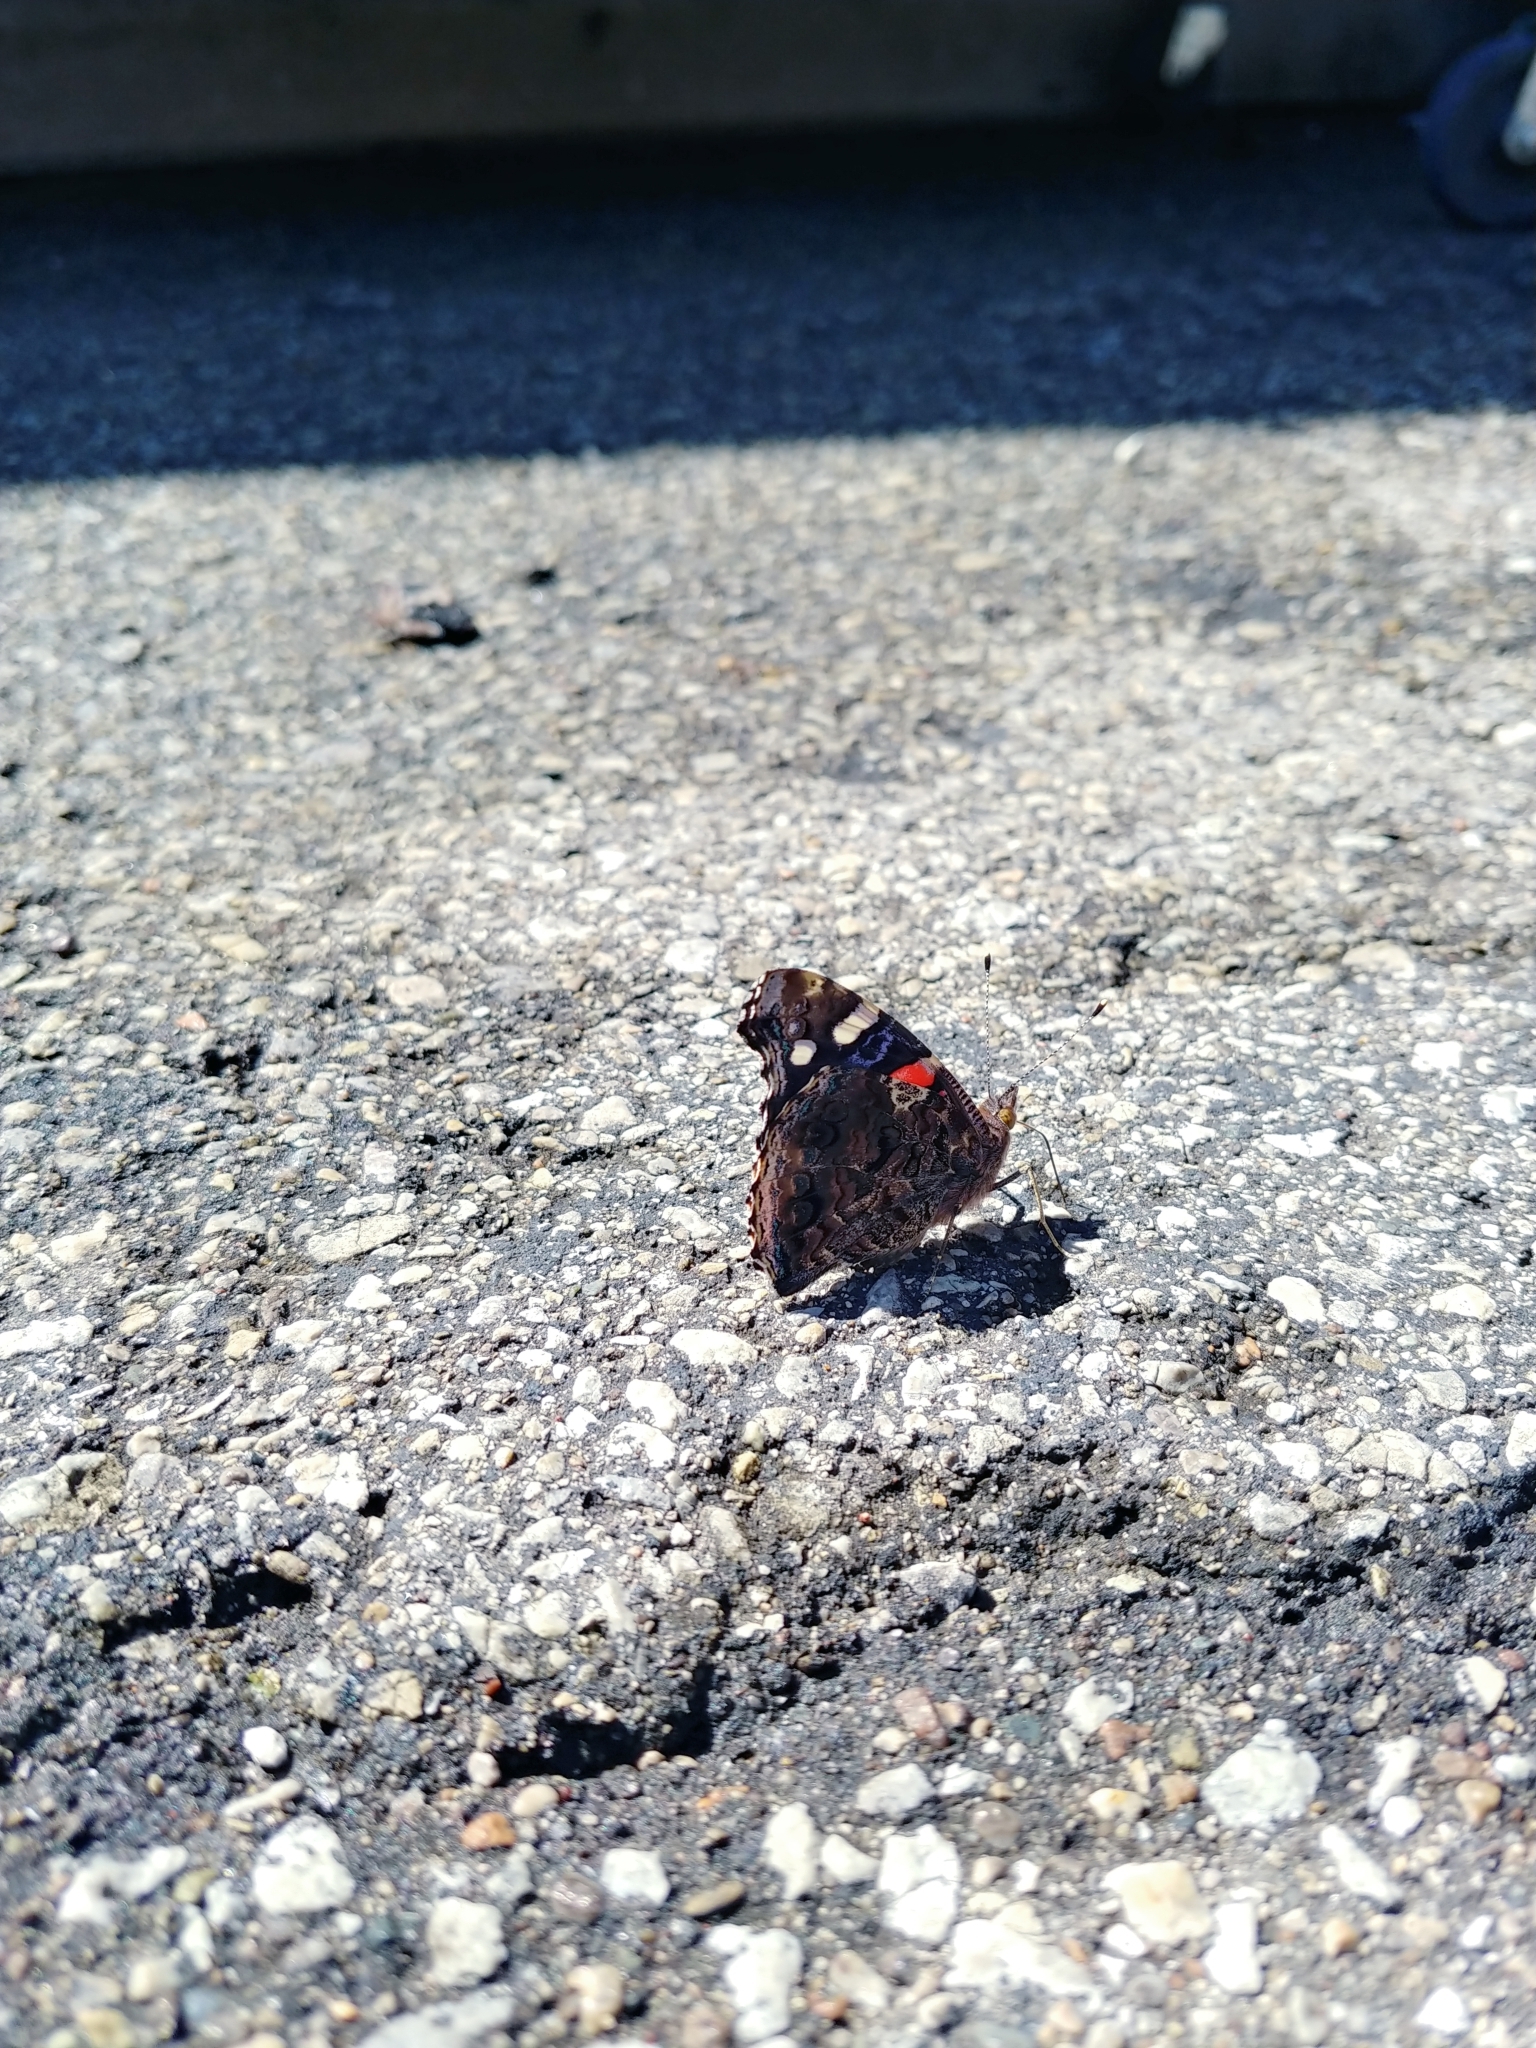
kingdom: Animalia
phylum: Arthropoda
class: Insecta
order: Lepidoptera
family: Nymphalidae
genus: Vanessa
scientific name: Vanessa atalanta
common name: Red admiral
